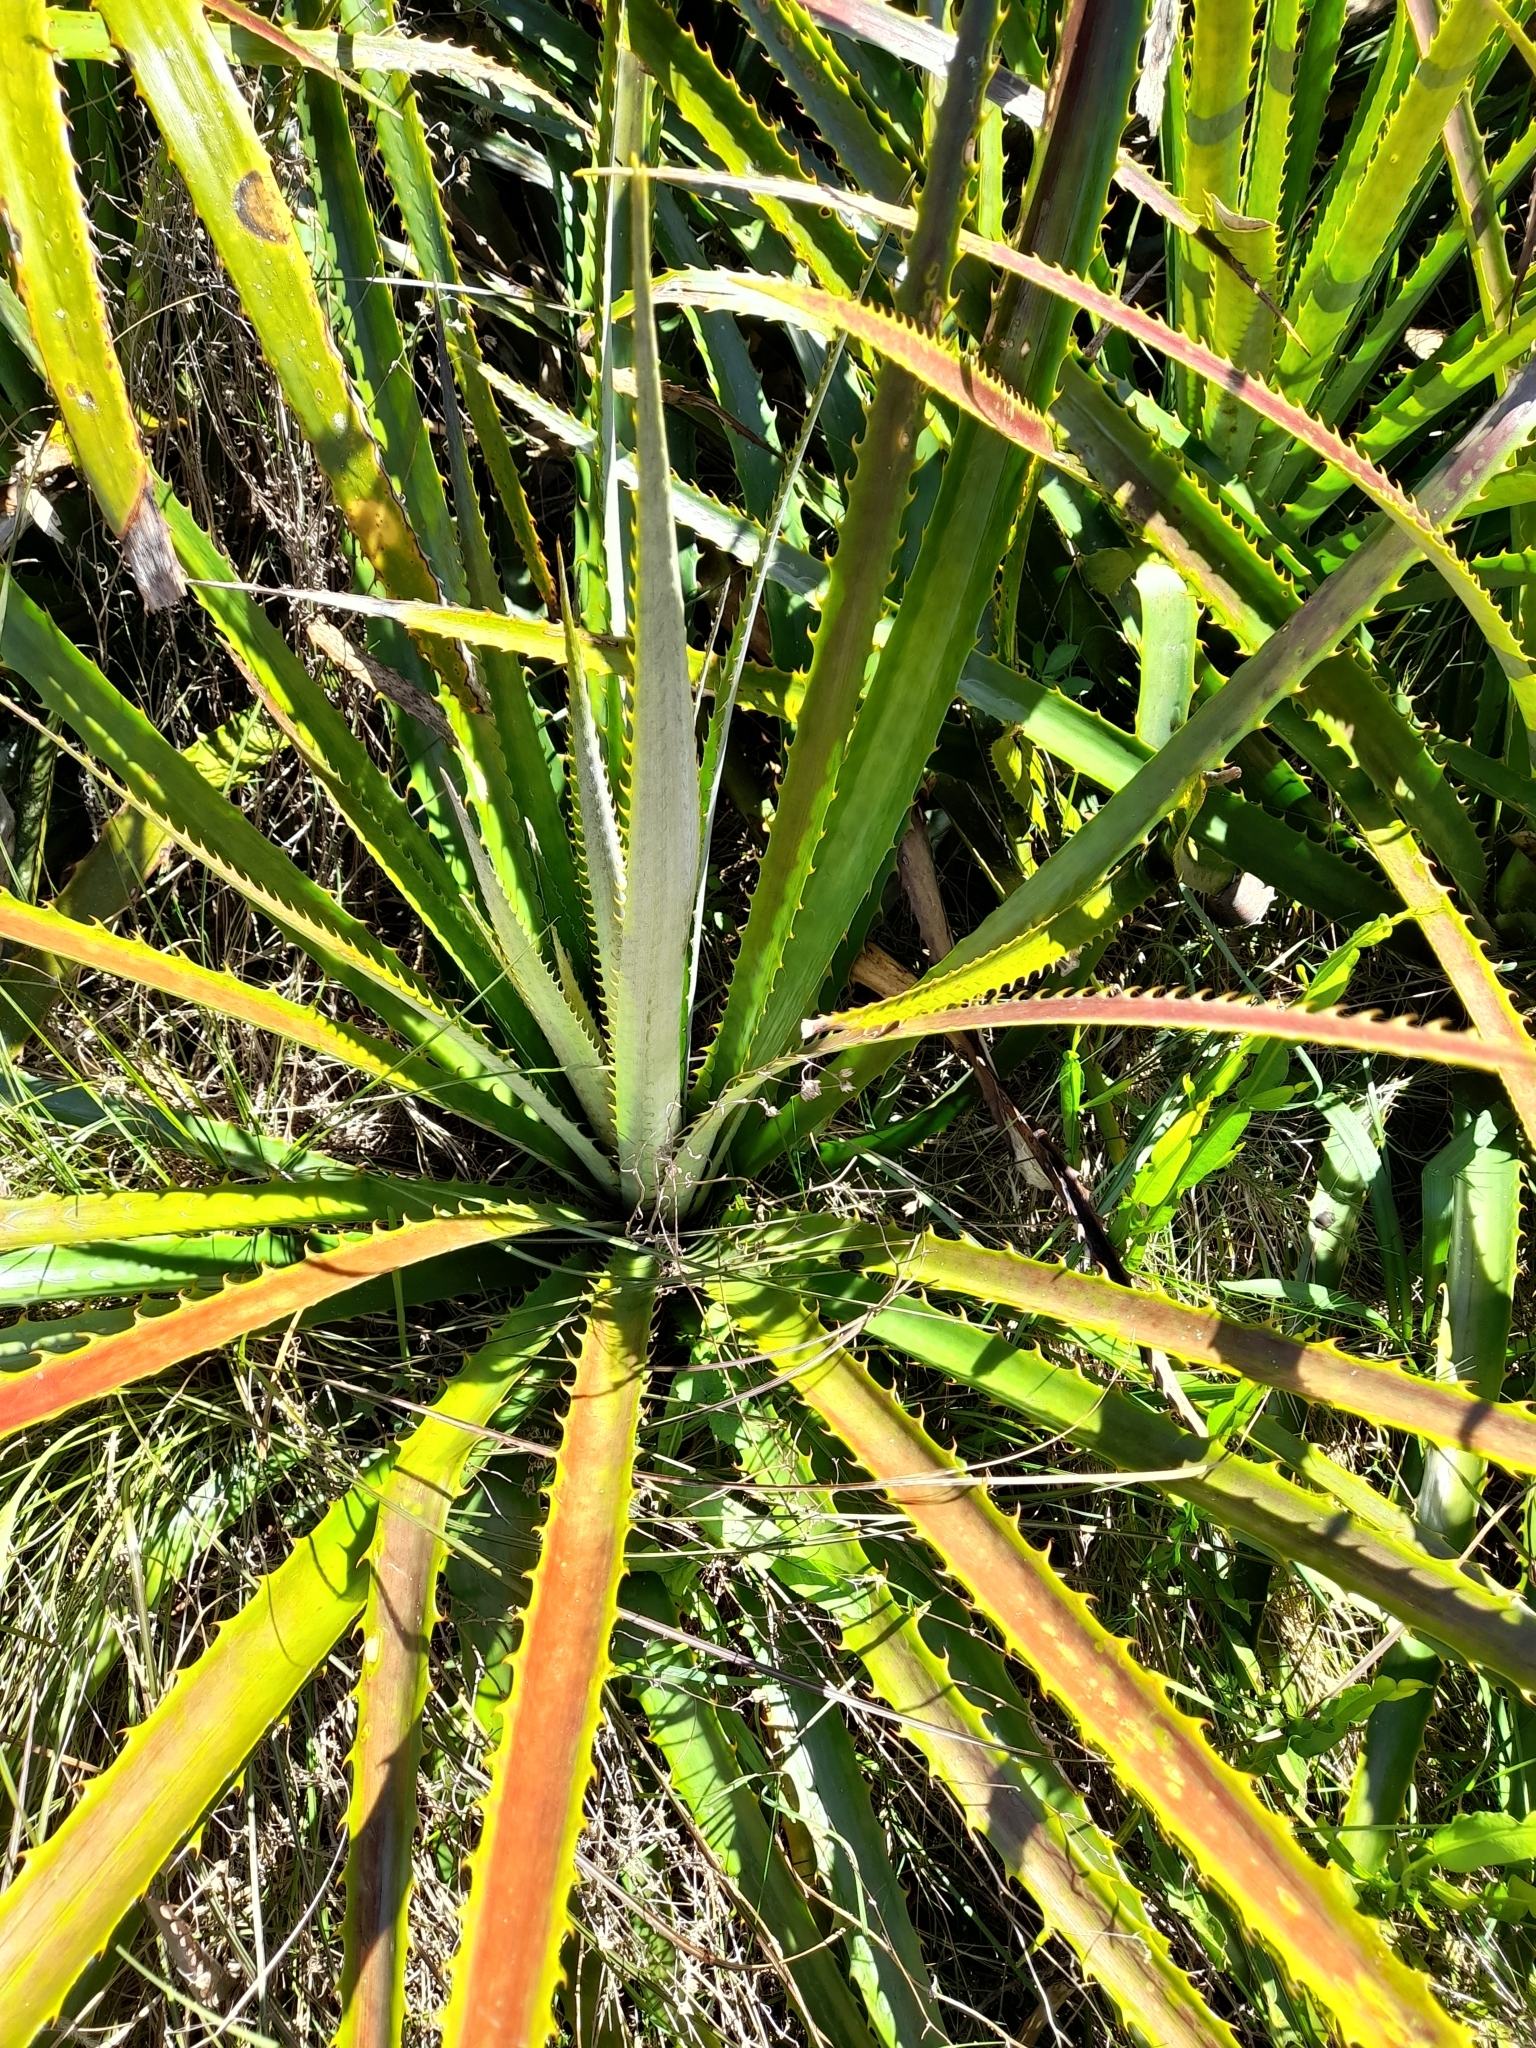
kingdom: Plantae
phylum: Tracheophyta
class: Liliopsida
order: Poales
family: Bromeliaceae
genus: Bromelia
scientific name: Bromelia antiacantha
